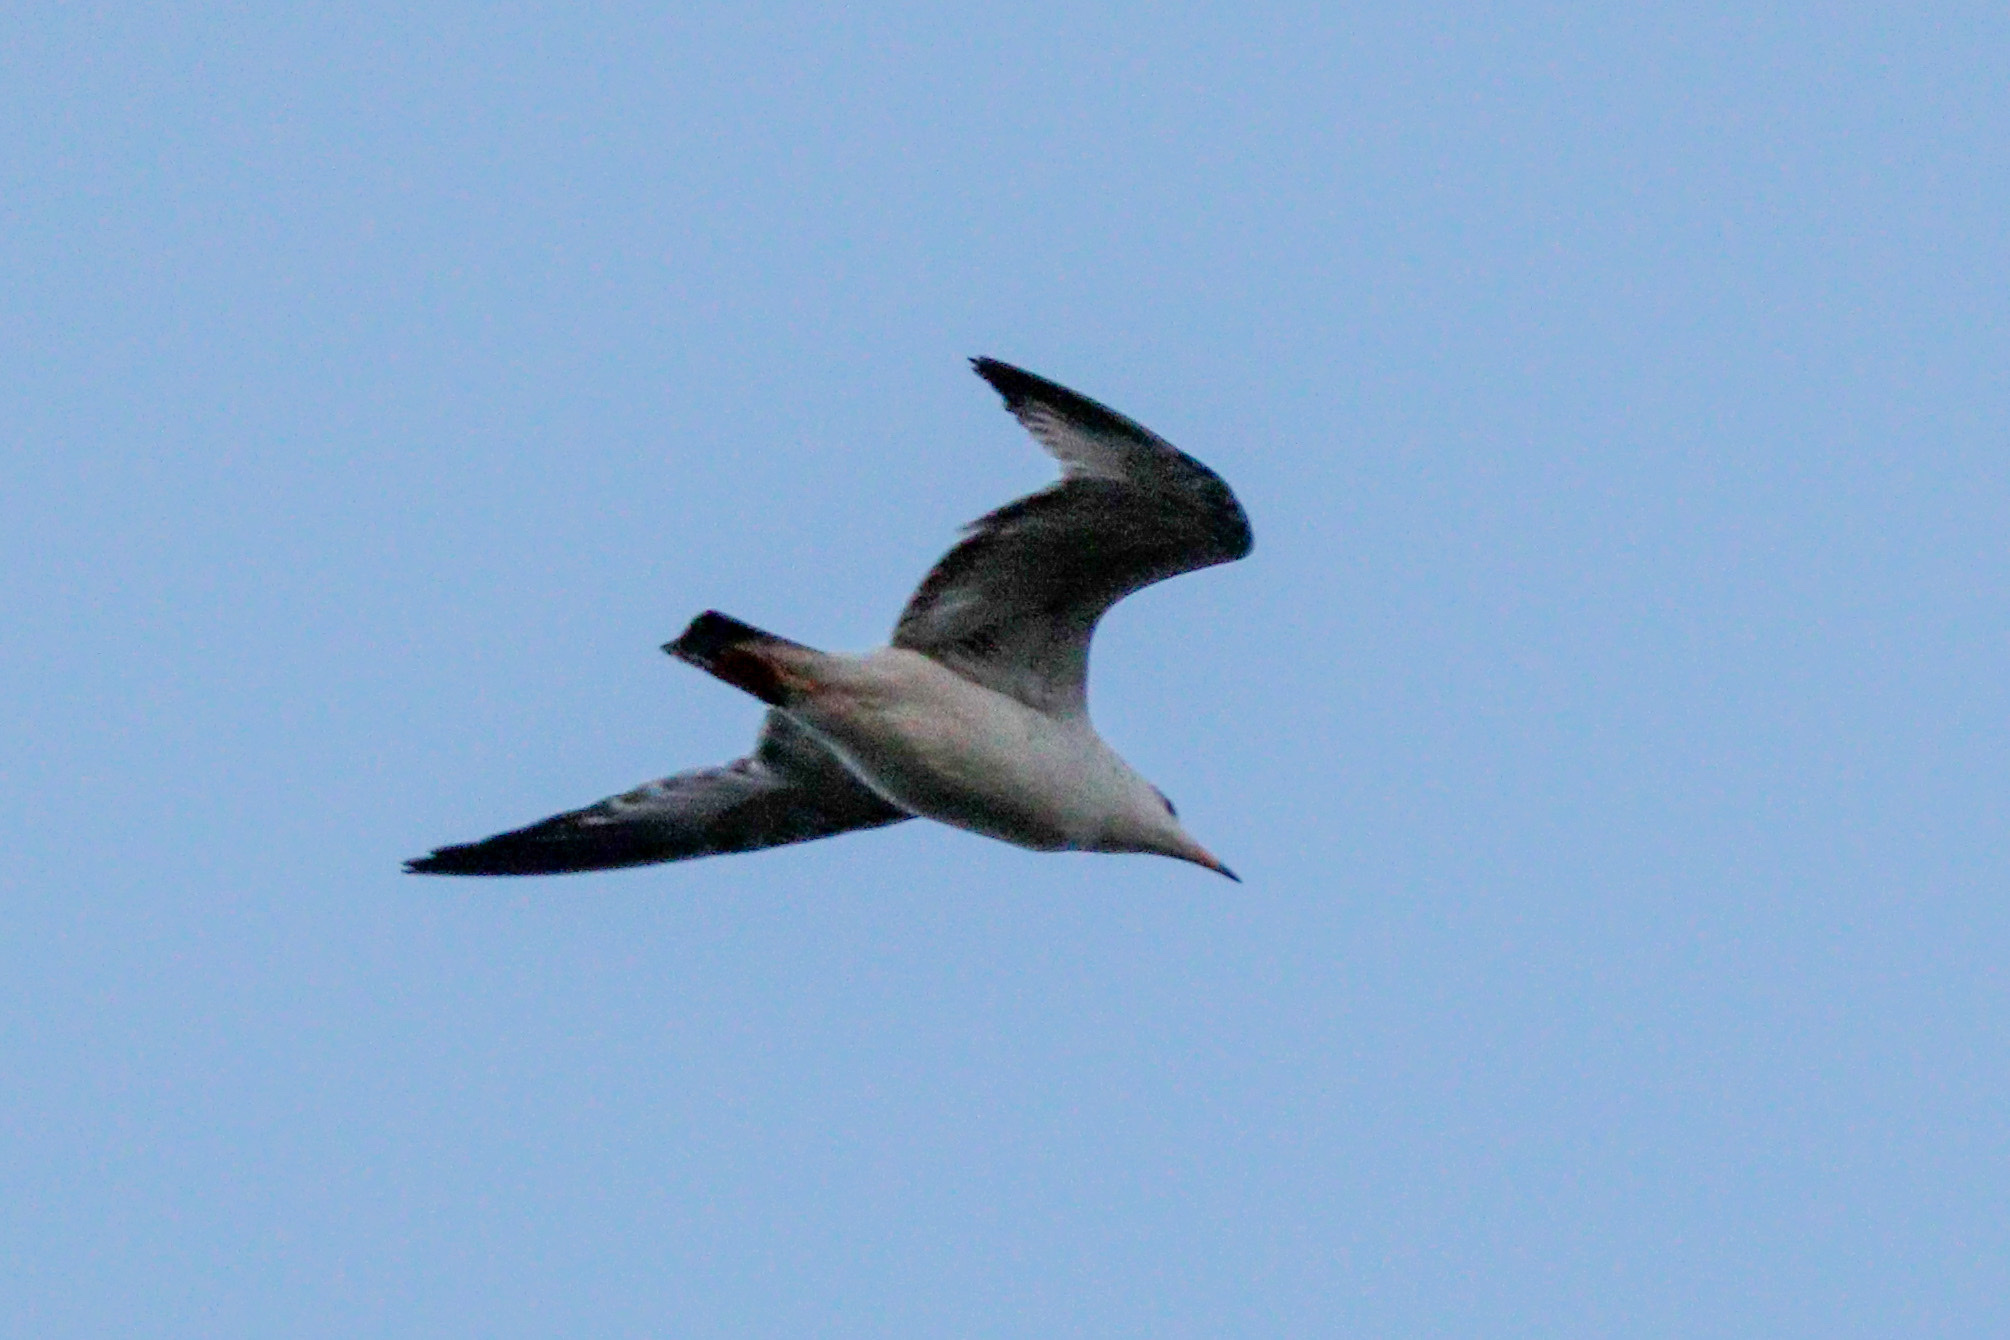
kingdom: Animalia
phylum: Chordata
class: Aves
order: Charadriiformes
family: Laridae
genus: Larus
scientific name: Larus delawarensis
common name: Ring-billed gull
